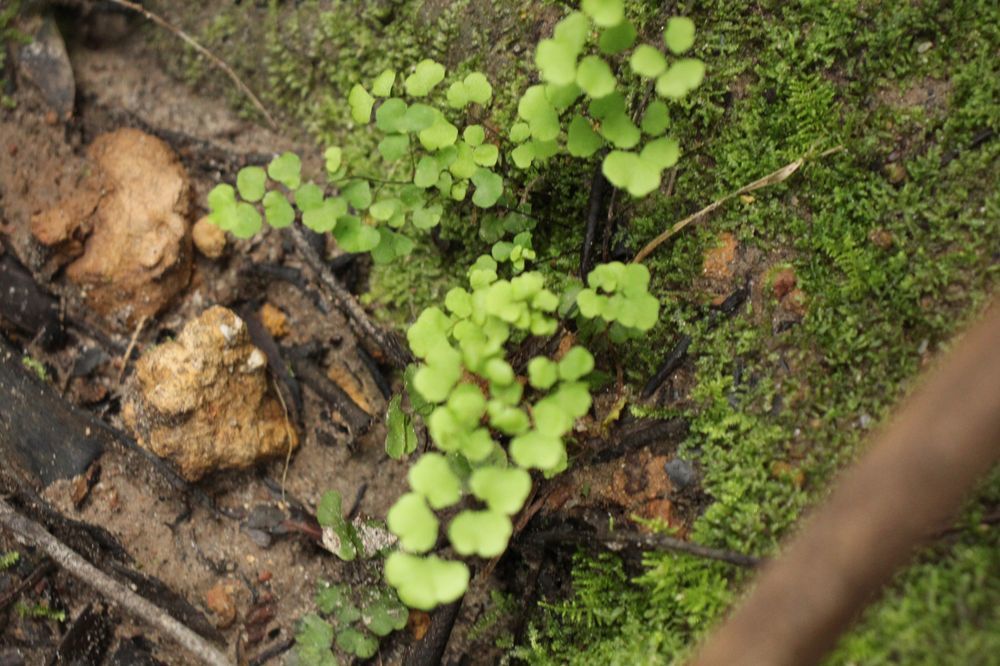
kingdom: Plantae
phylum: Tracheophyta
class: Polypodiopsida
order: Polypodiales
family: Pteridaceae
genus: Adiantum
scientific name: Adiantum aethiopicum
